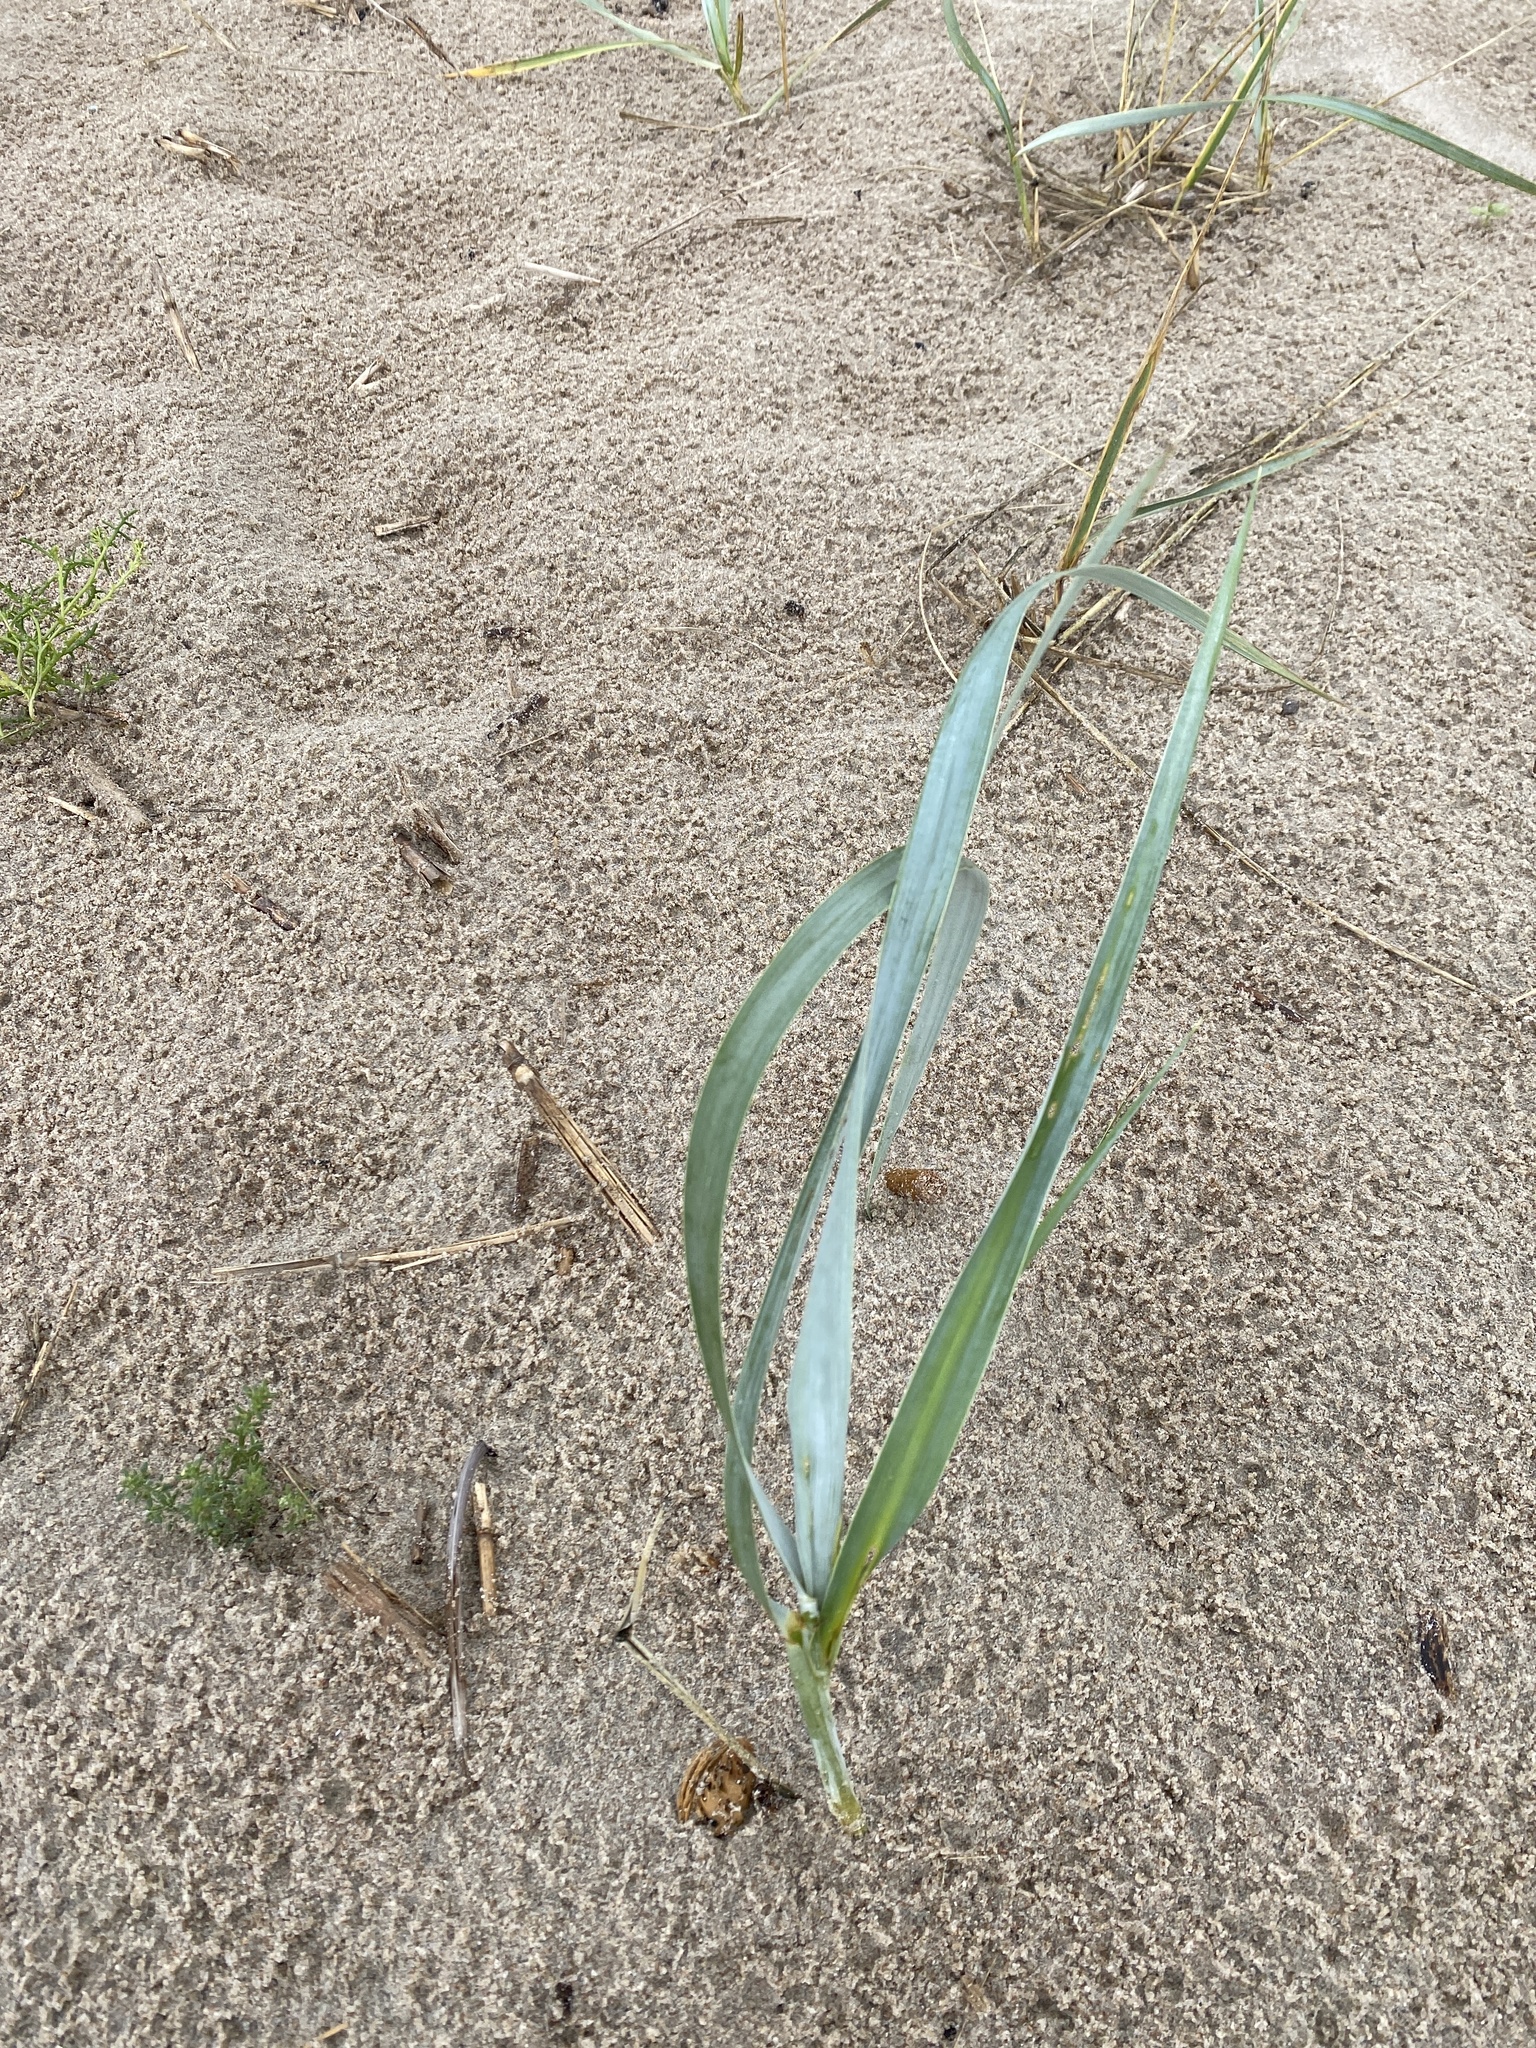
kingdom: Plantae
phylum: Tracheophyta
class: Liliopsida
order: Poales
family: Poaceae
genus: Leymus
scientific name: Leymus arenarius
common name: Lyme-grass
